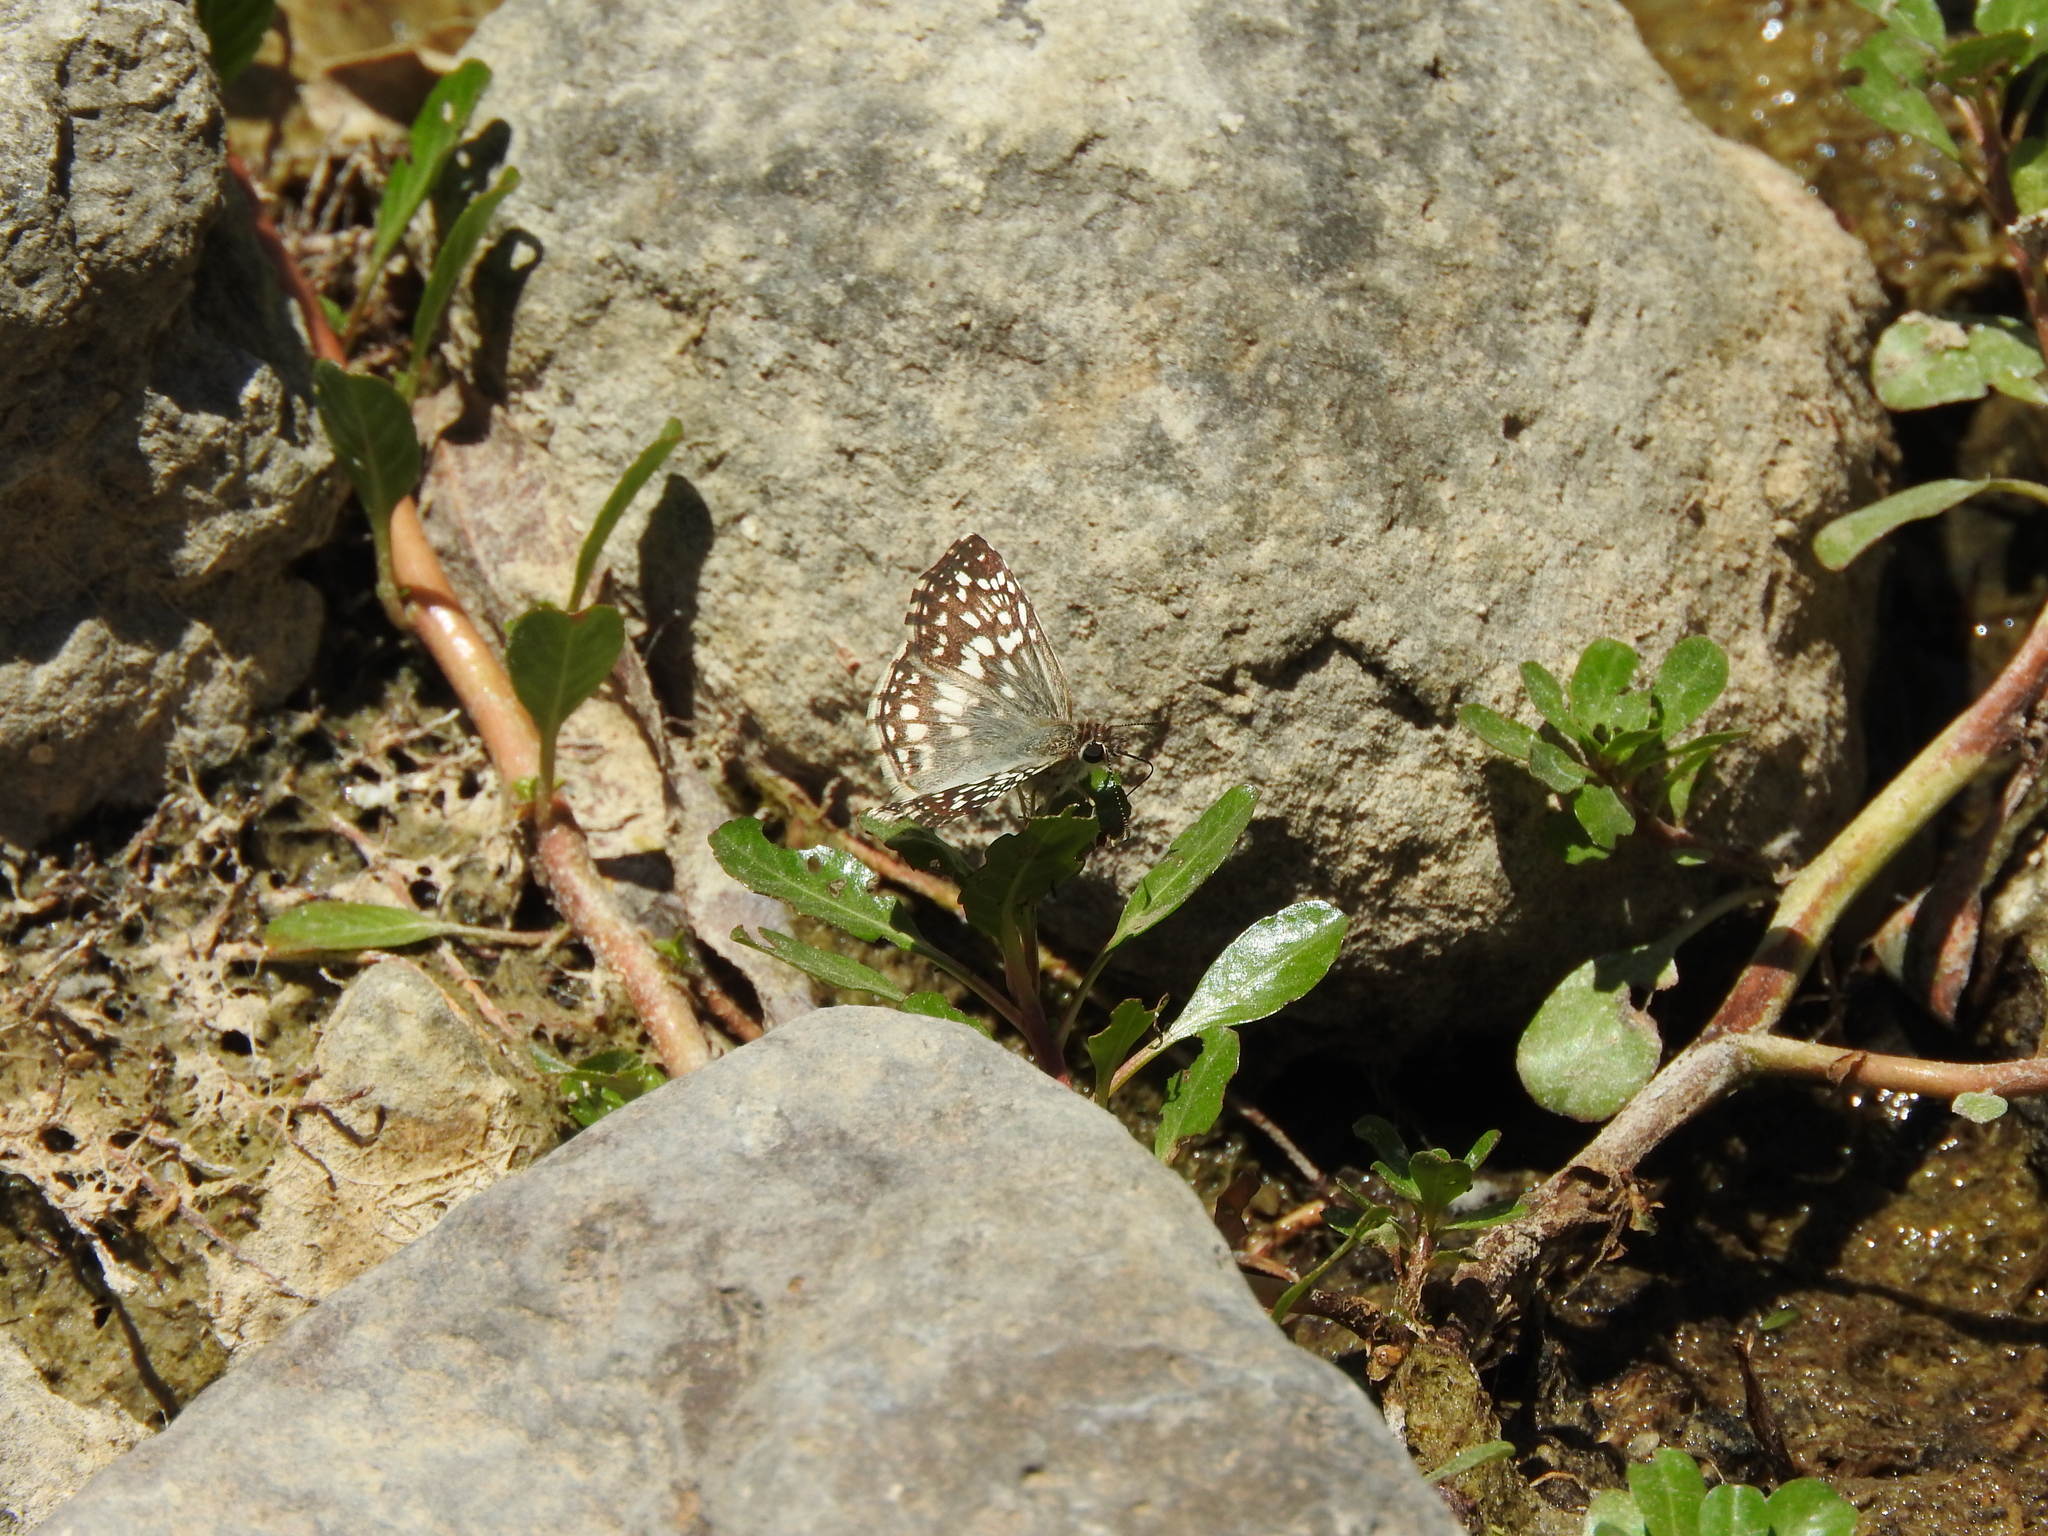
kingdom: Animalia
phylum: Arthropoda
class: Insecta
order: Lepidoptera
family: Hesperiidae
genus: Pyrgus
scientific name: Pyrgus oileus
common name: Tropical checkered-skipper
